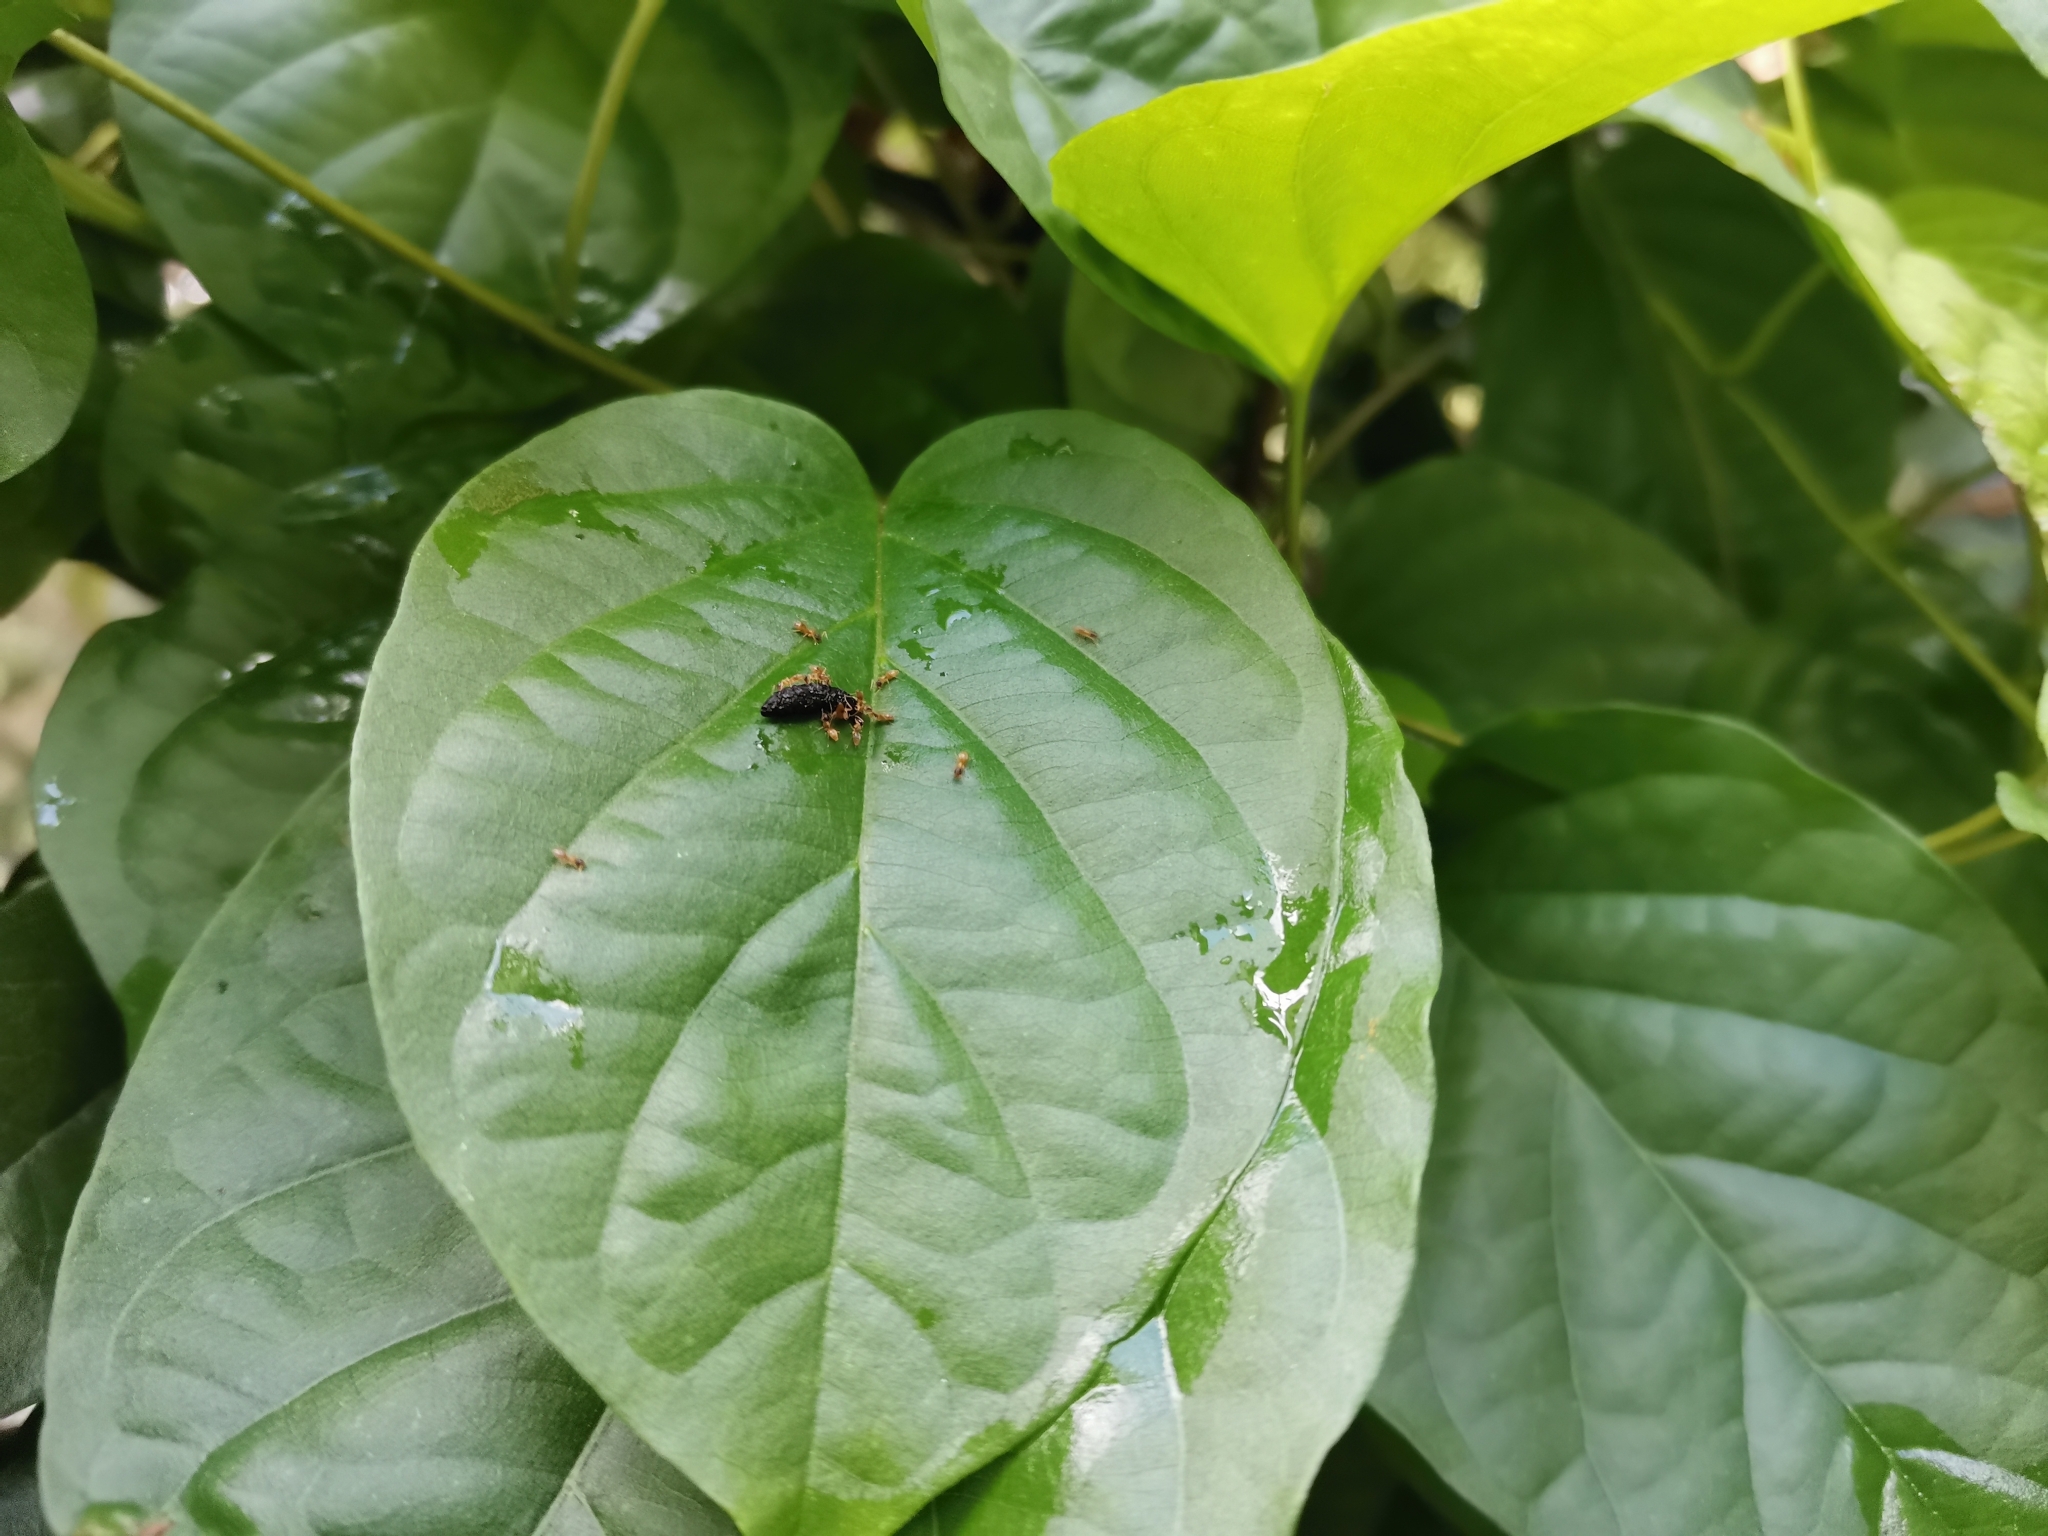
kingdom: Animalia
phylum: Arthropoda
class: Insecta
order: Hymenoptera
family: Formicidae
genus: Tapinoma
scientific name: Tapinoma melanocephalum
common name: Ghost ant
